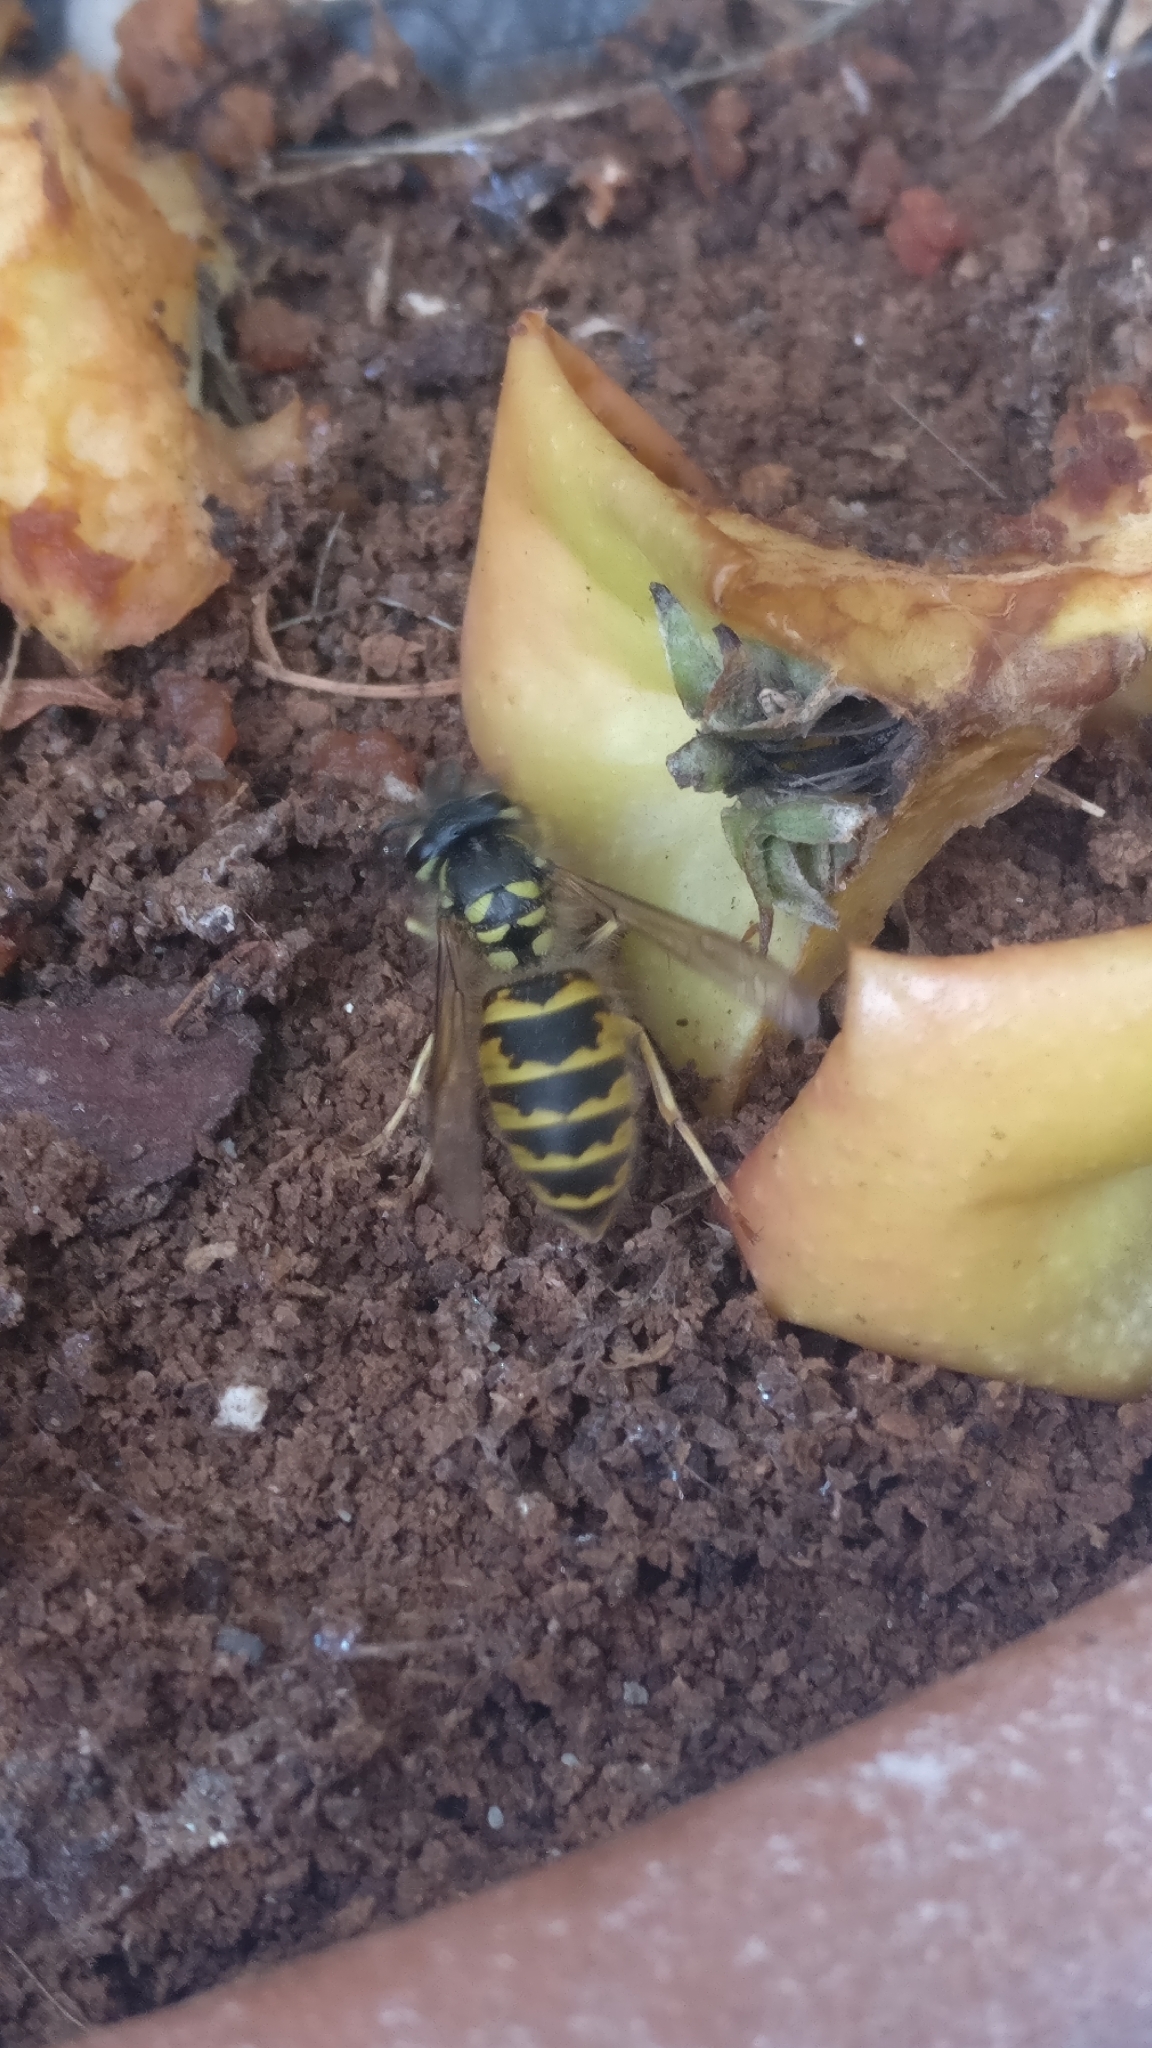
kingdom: Animalia
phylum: Arthropoda
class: Insecta
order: Hymenoptera
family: Vespidae
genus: Vespula
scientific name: Vespula vulgaris
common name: Common wasp
